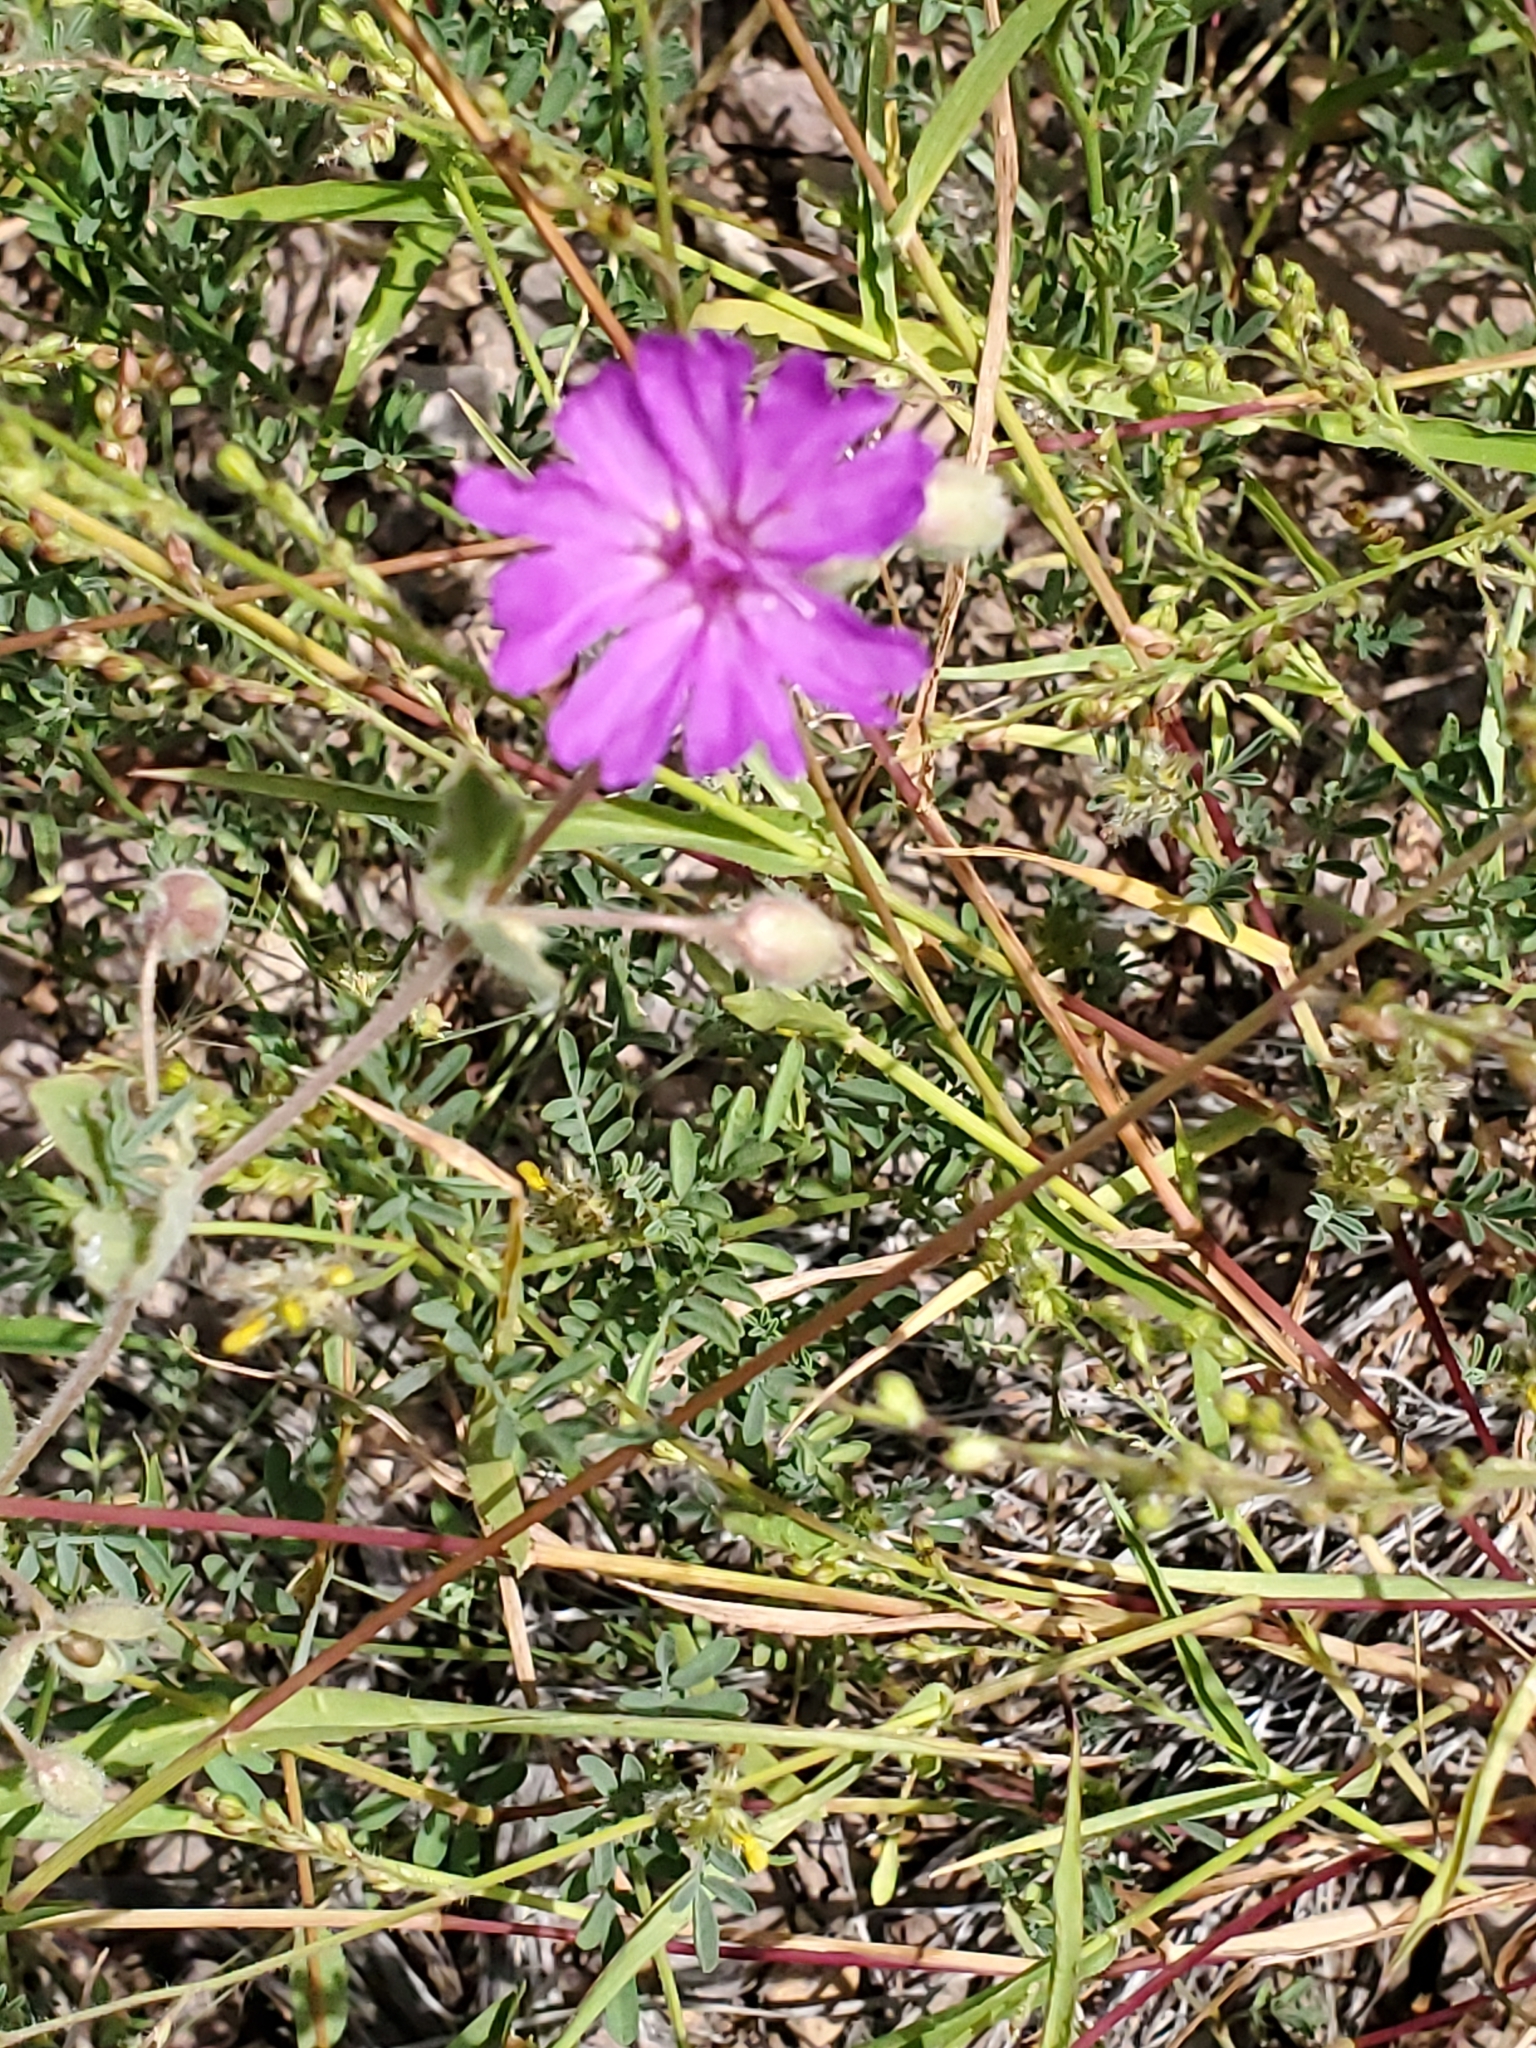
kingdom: Plantae
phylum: Tracheophyta
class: Magnoliopsida
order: Caryophyllales
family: Nyctaginaceae
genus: Allionia
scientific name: Allionia incarnata
